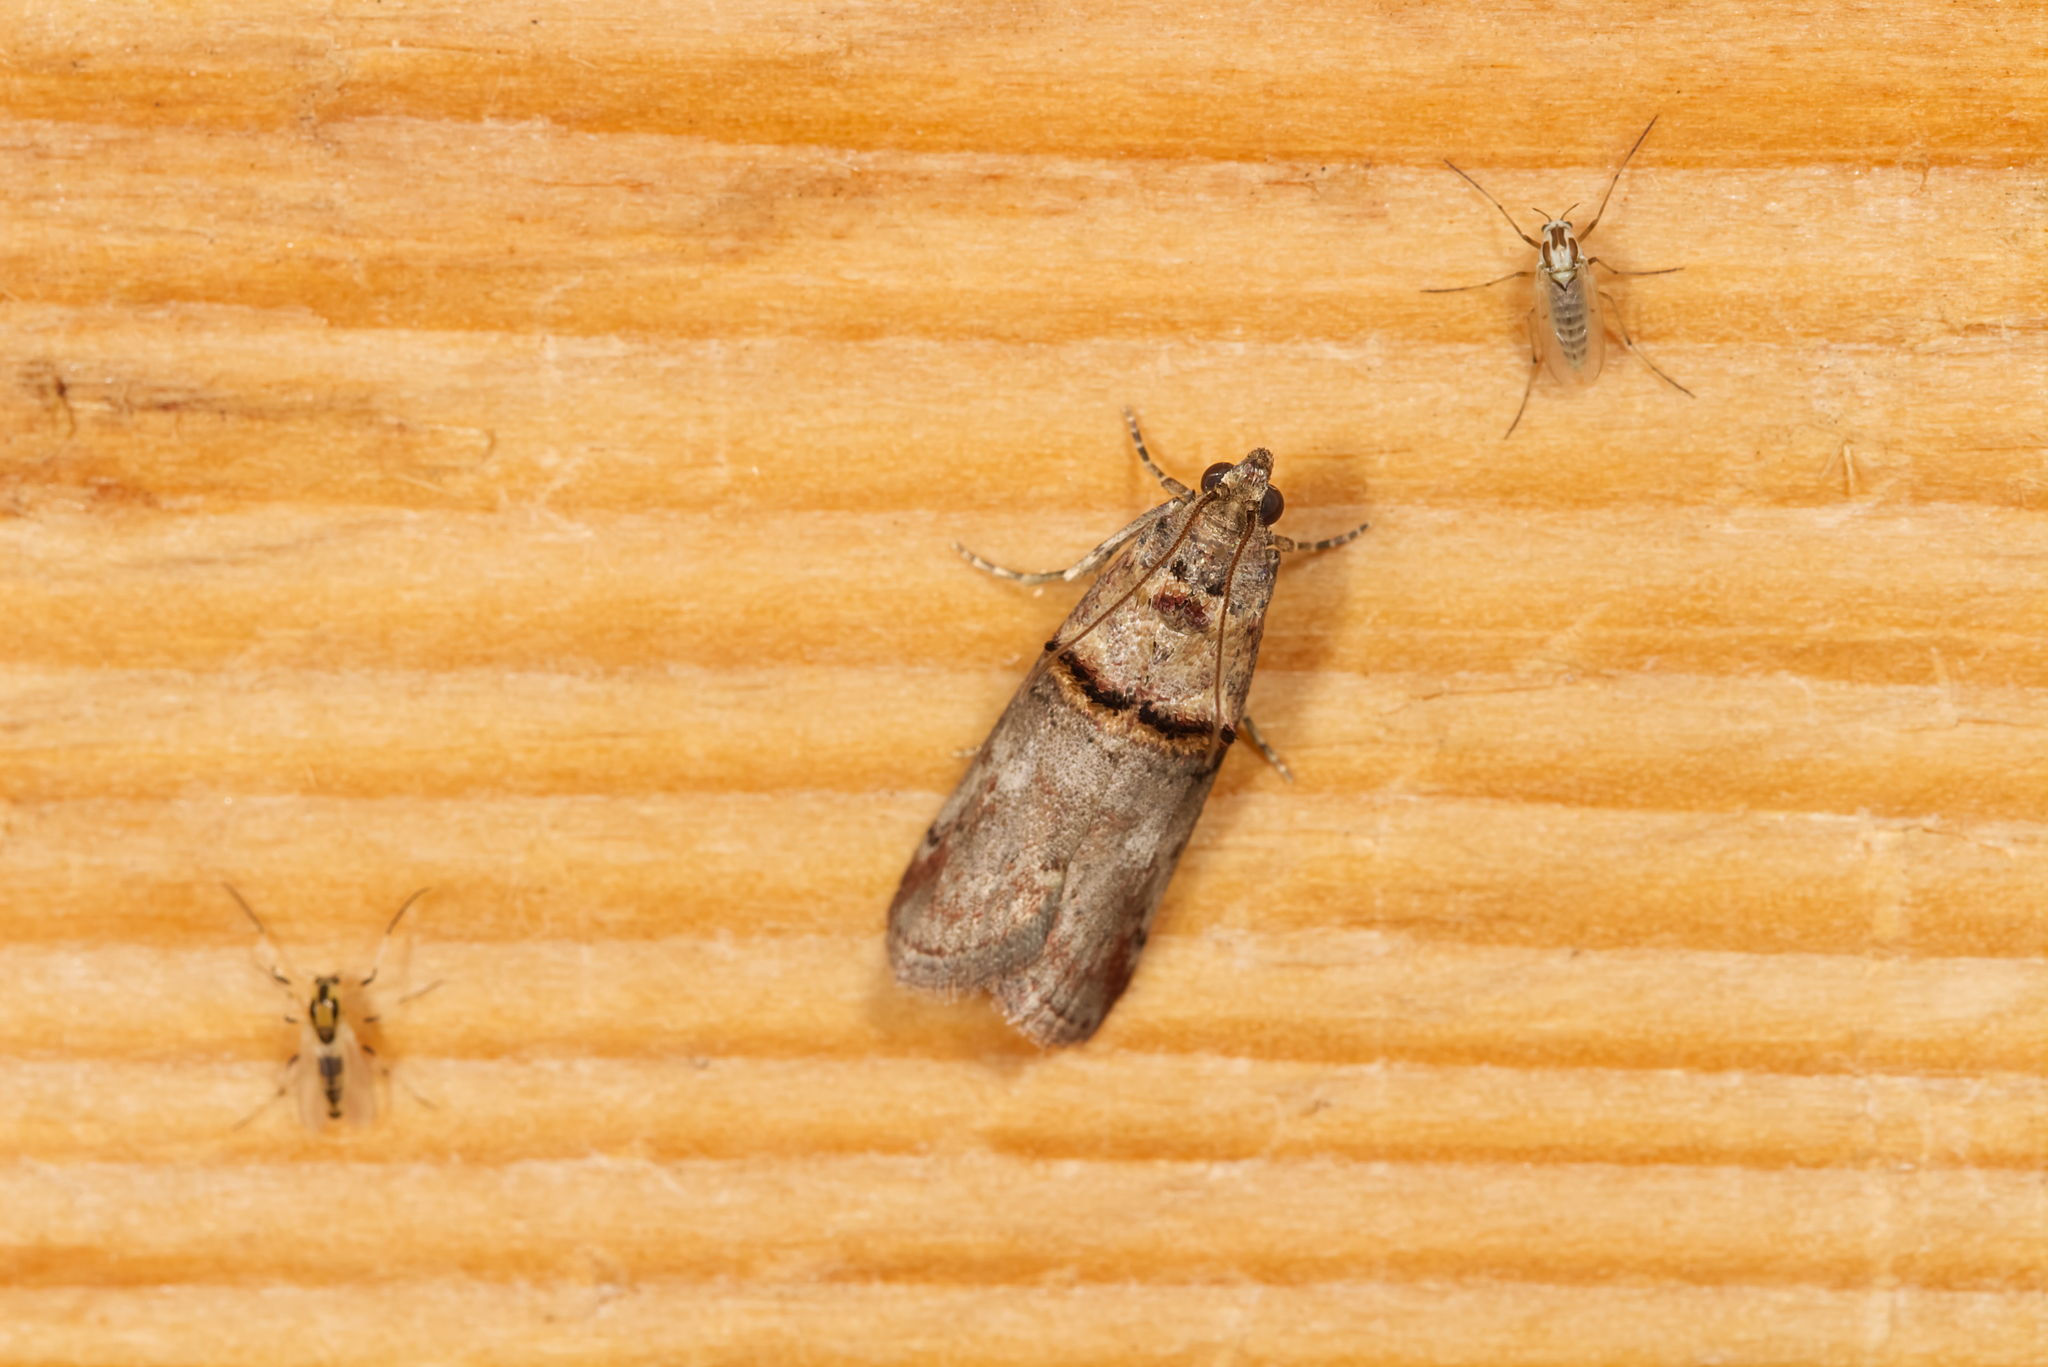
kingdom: Animalia
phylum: Arthropoda
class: Insecta
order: Lepidoptera
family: Pyralidae
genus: Trachonitis
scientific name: Trachonitis cristella
